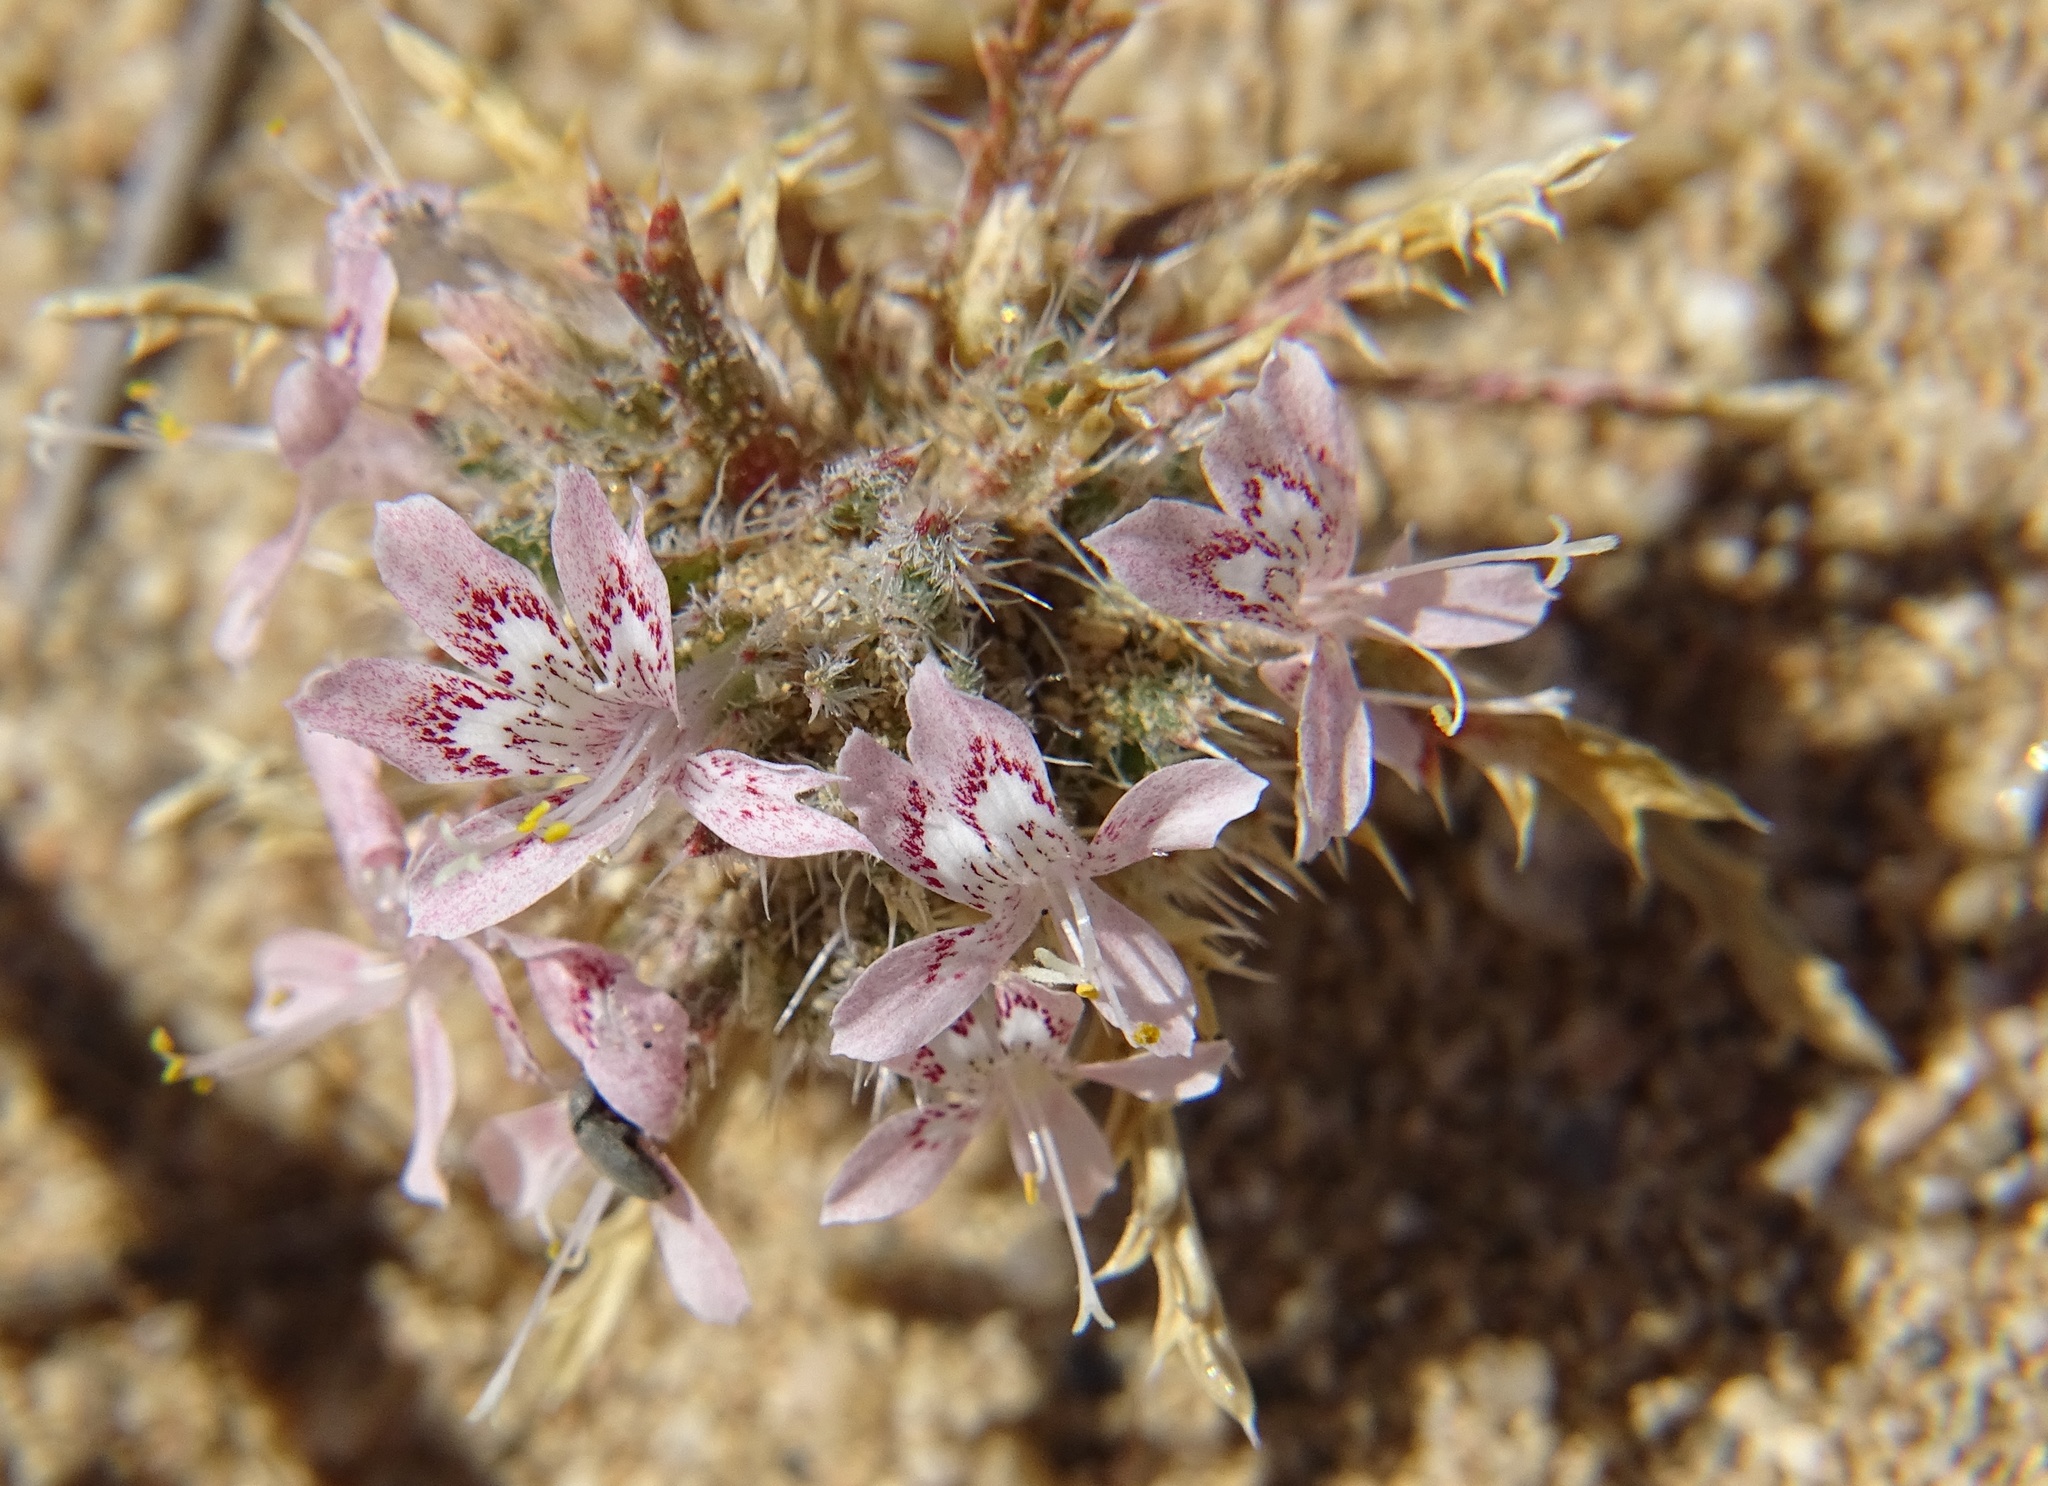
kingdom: Plantae
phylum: Tracheophyta
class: Magnoliopsida
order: Ericales
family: Polemoniaceae
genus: Loeseliastrum
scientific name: Loeseliastrum matthewsii
